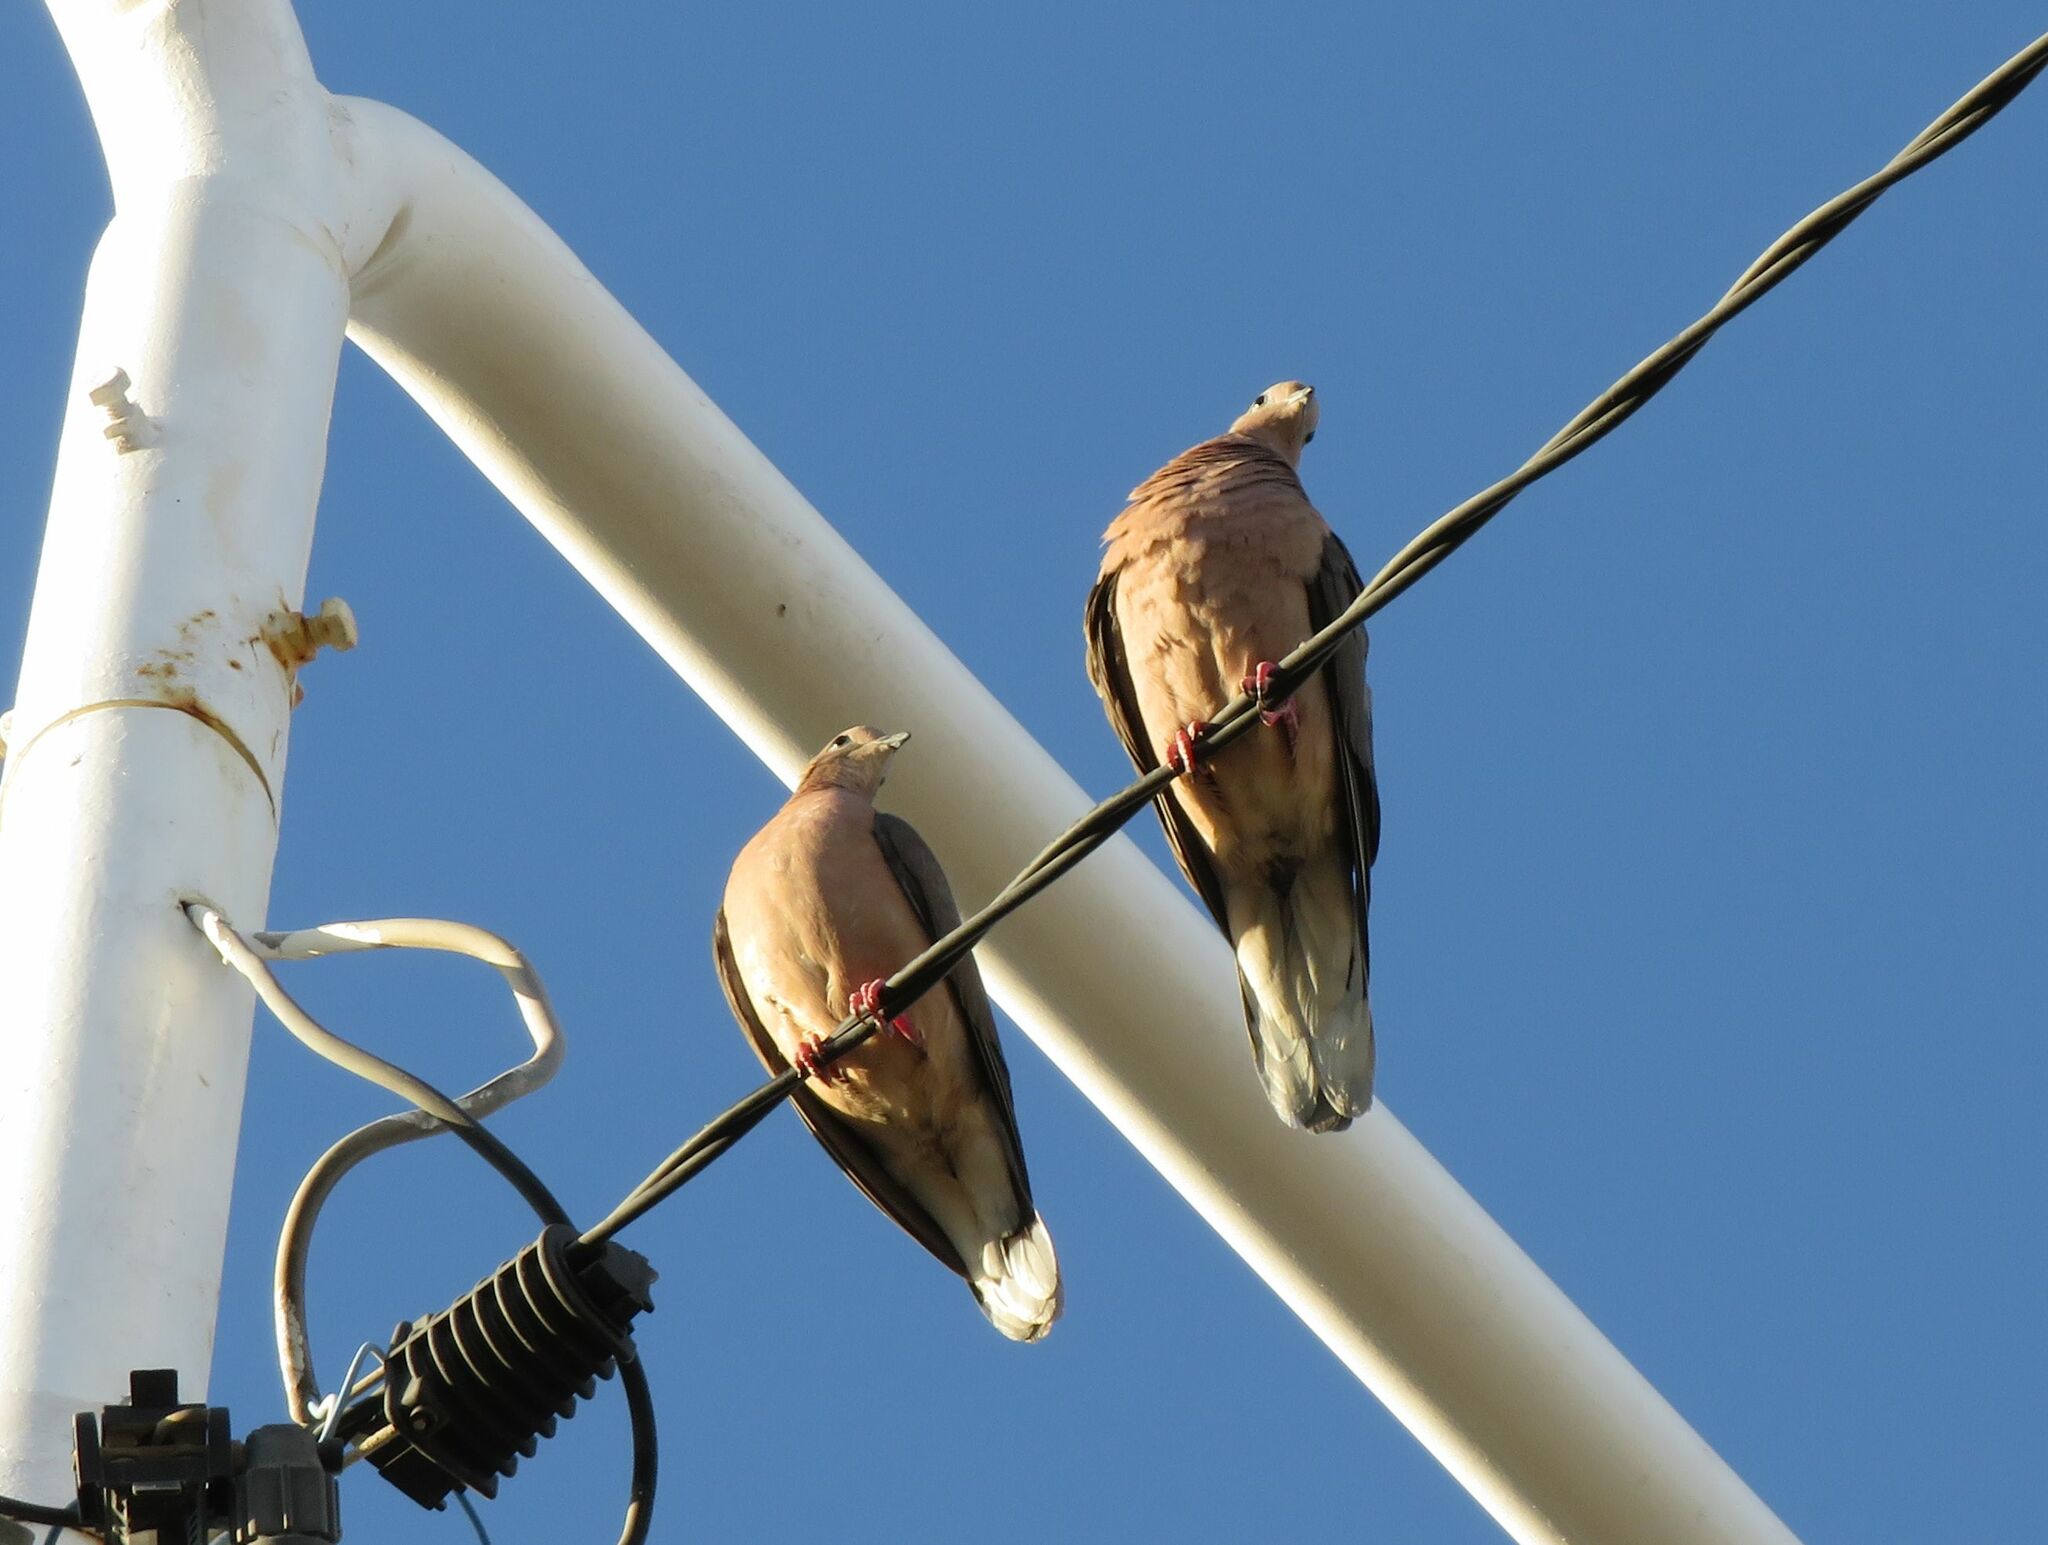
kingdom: Animalia
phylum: Chordata
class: Aves
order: Columbiformes
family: Columbidae
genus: Zenaida
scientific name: Zenaida auriculata
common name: Eared dove
